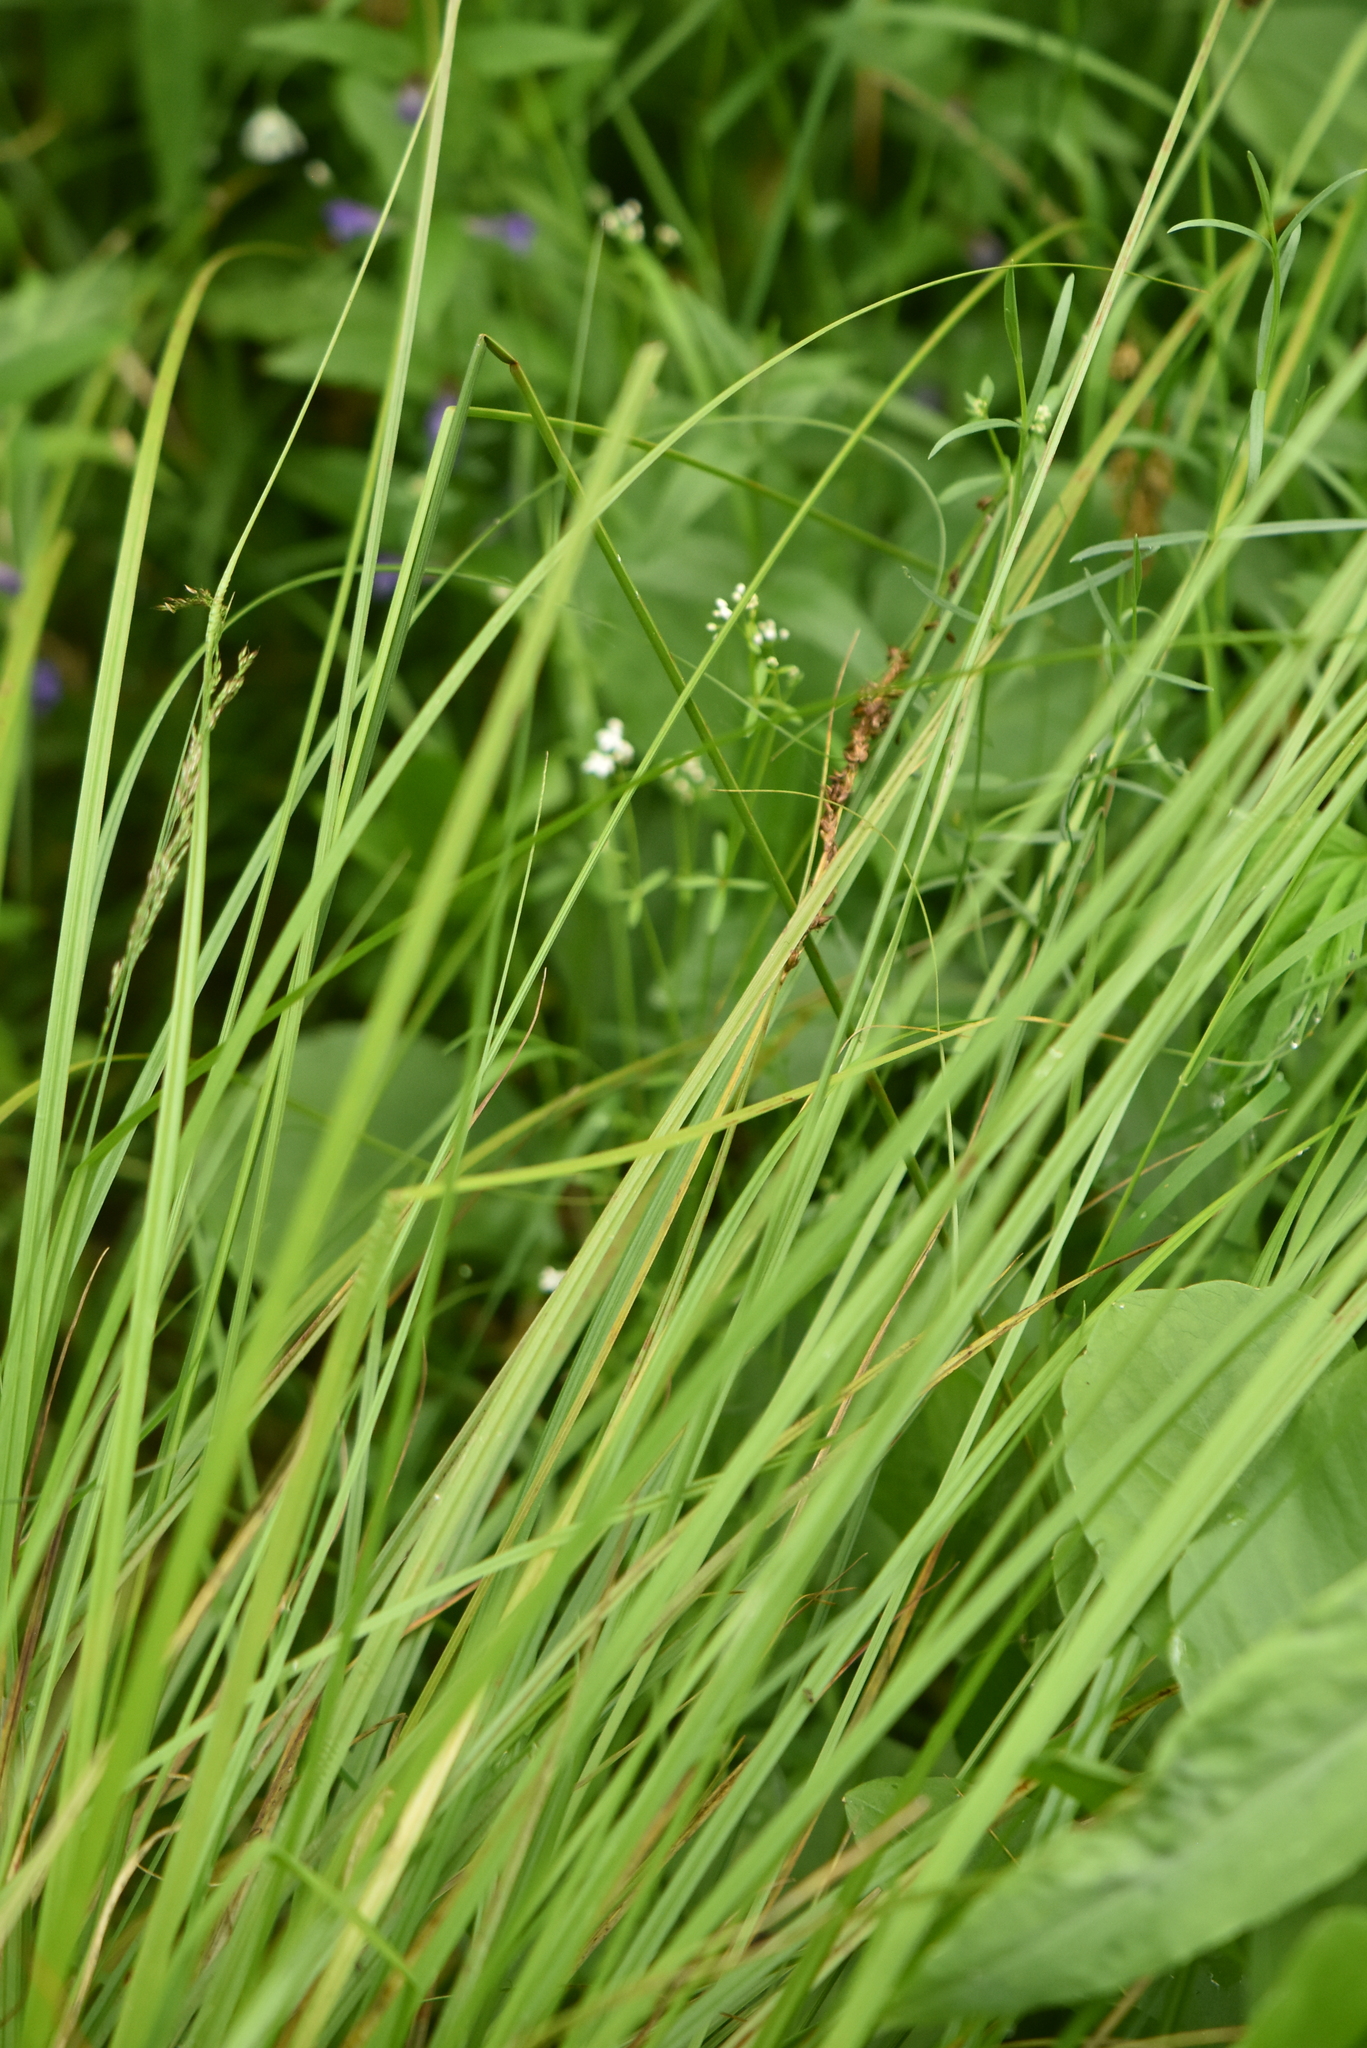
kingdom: Plantae
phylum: Tracheophyta
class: Liliopsida
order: Poales
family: Cyperaceae
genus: Carex
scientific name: Carex elongata
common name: Elongated sedge
